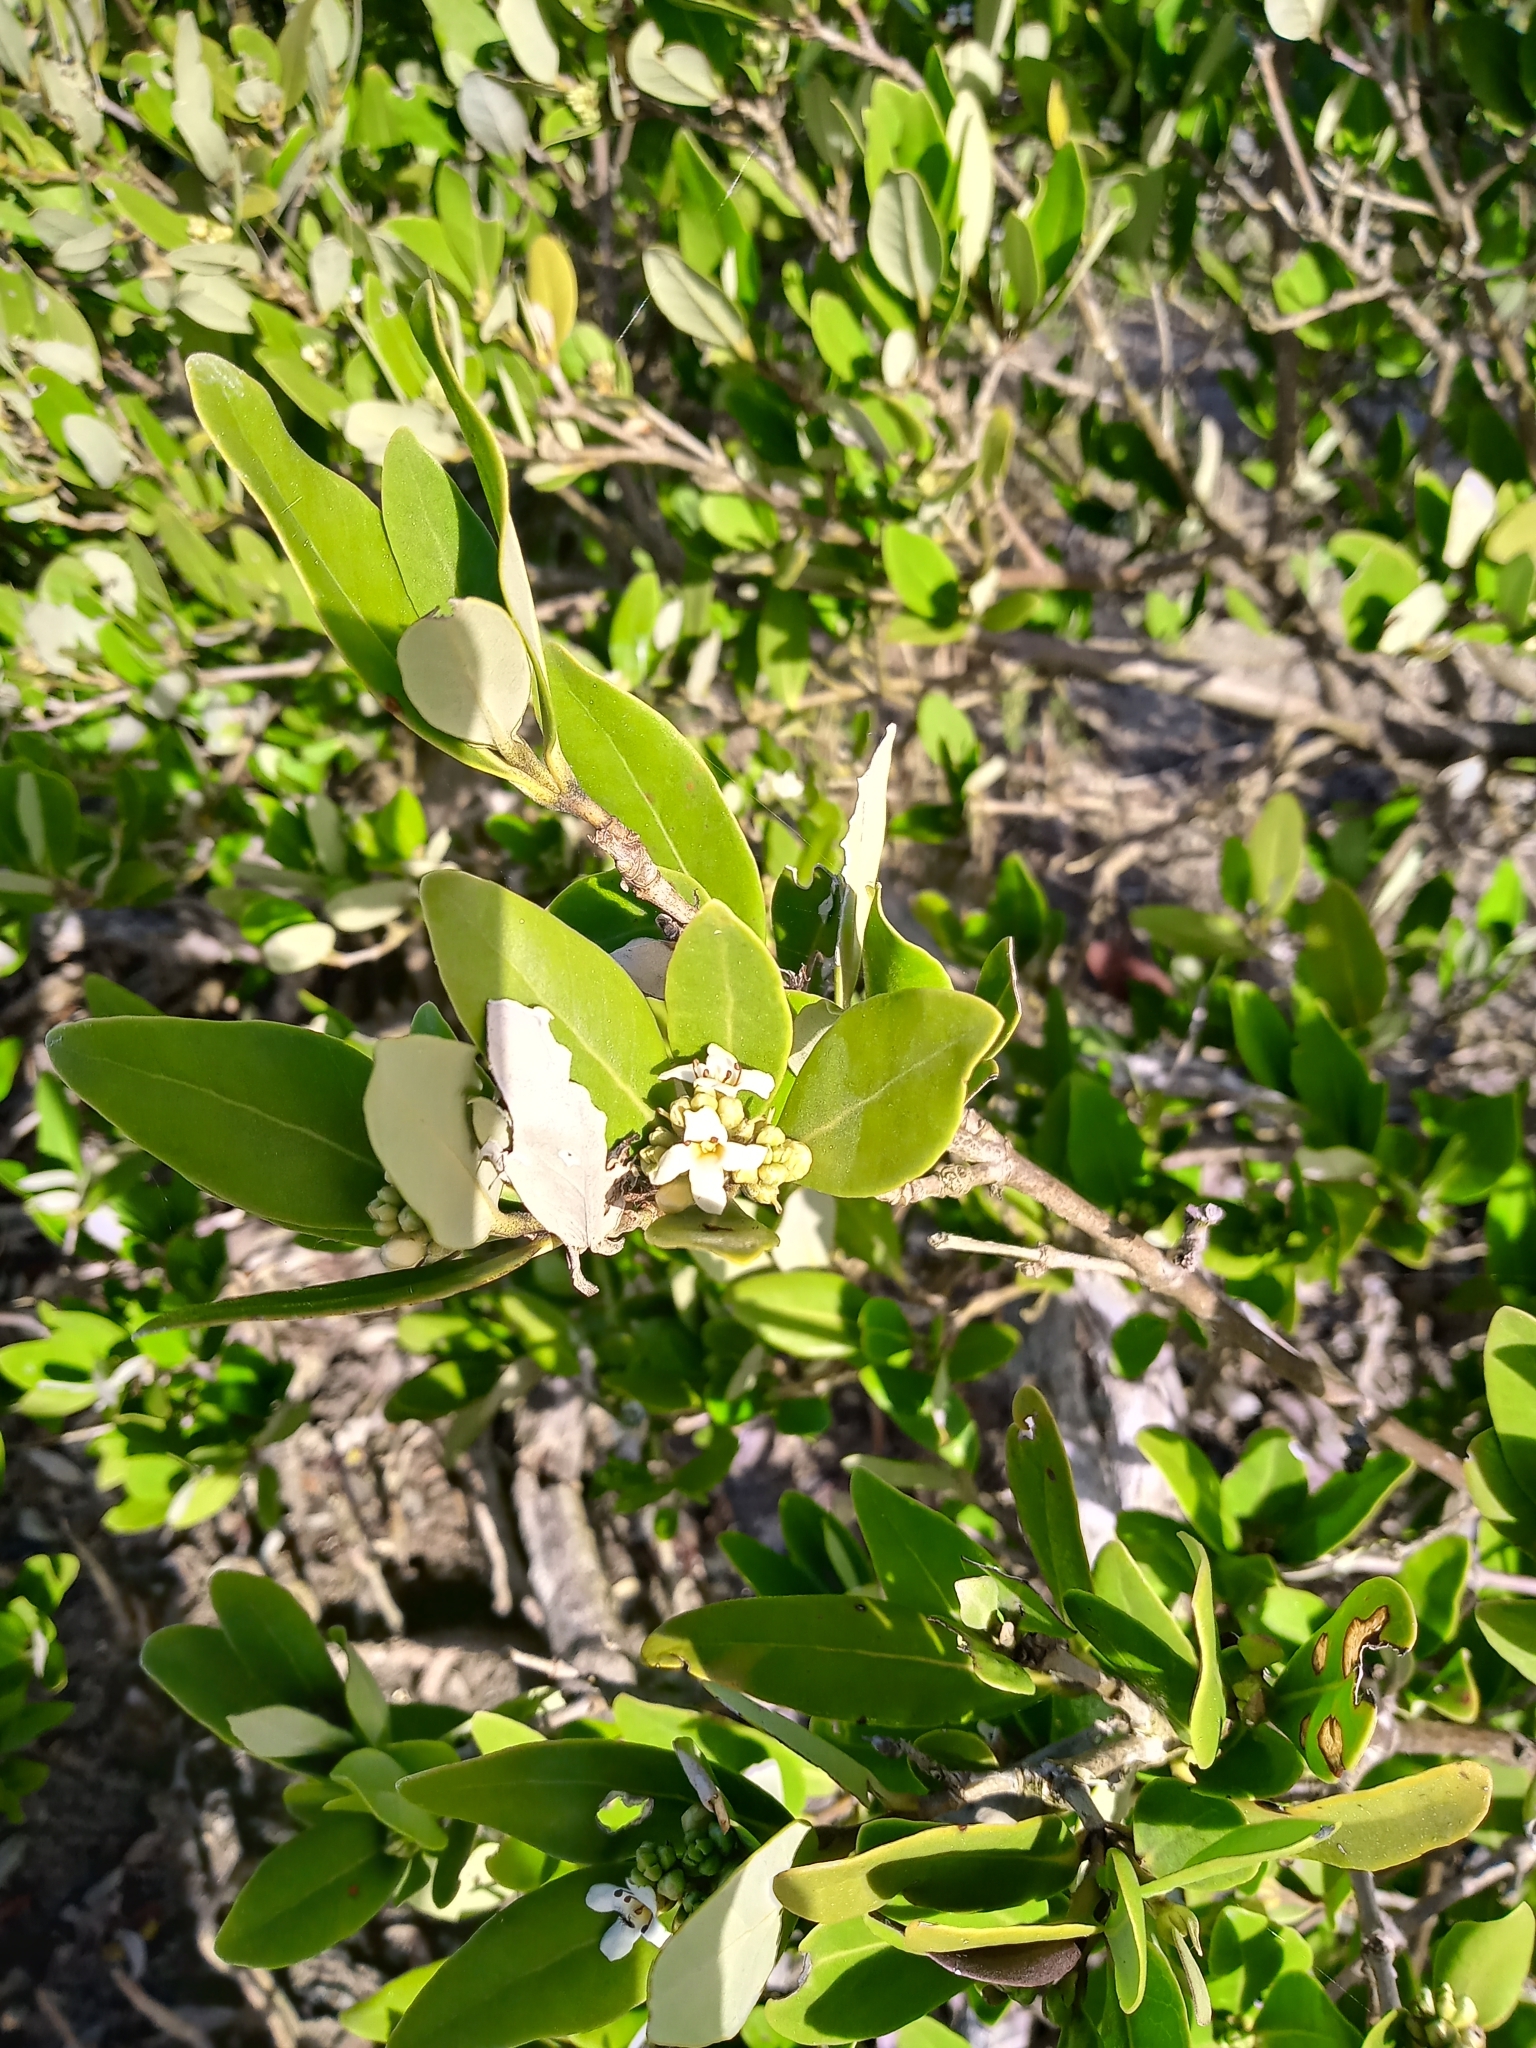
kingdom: Plantae
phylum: Tracheophyta
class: Magnoliopsida
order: Lamiales
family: Acanthaceae
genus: Avicennia
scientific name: Avicennia germinans
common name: Black mangrove
